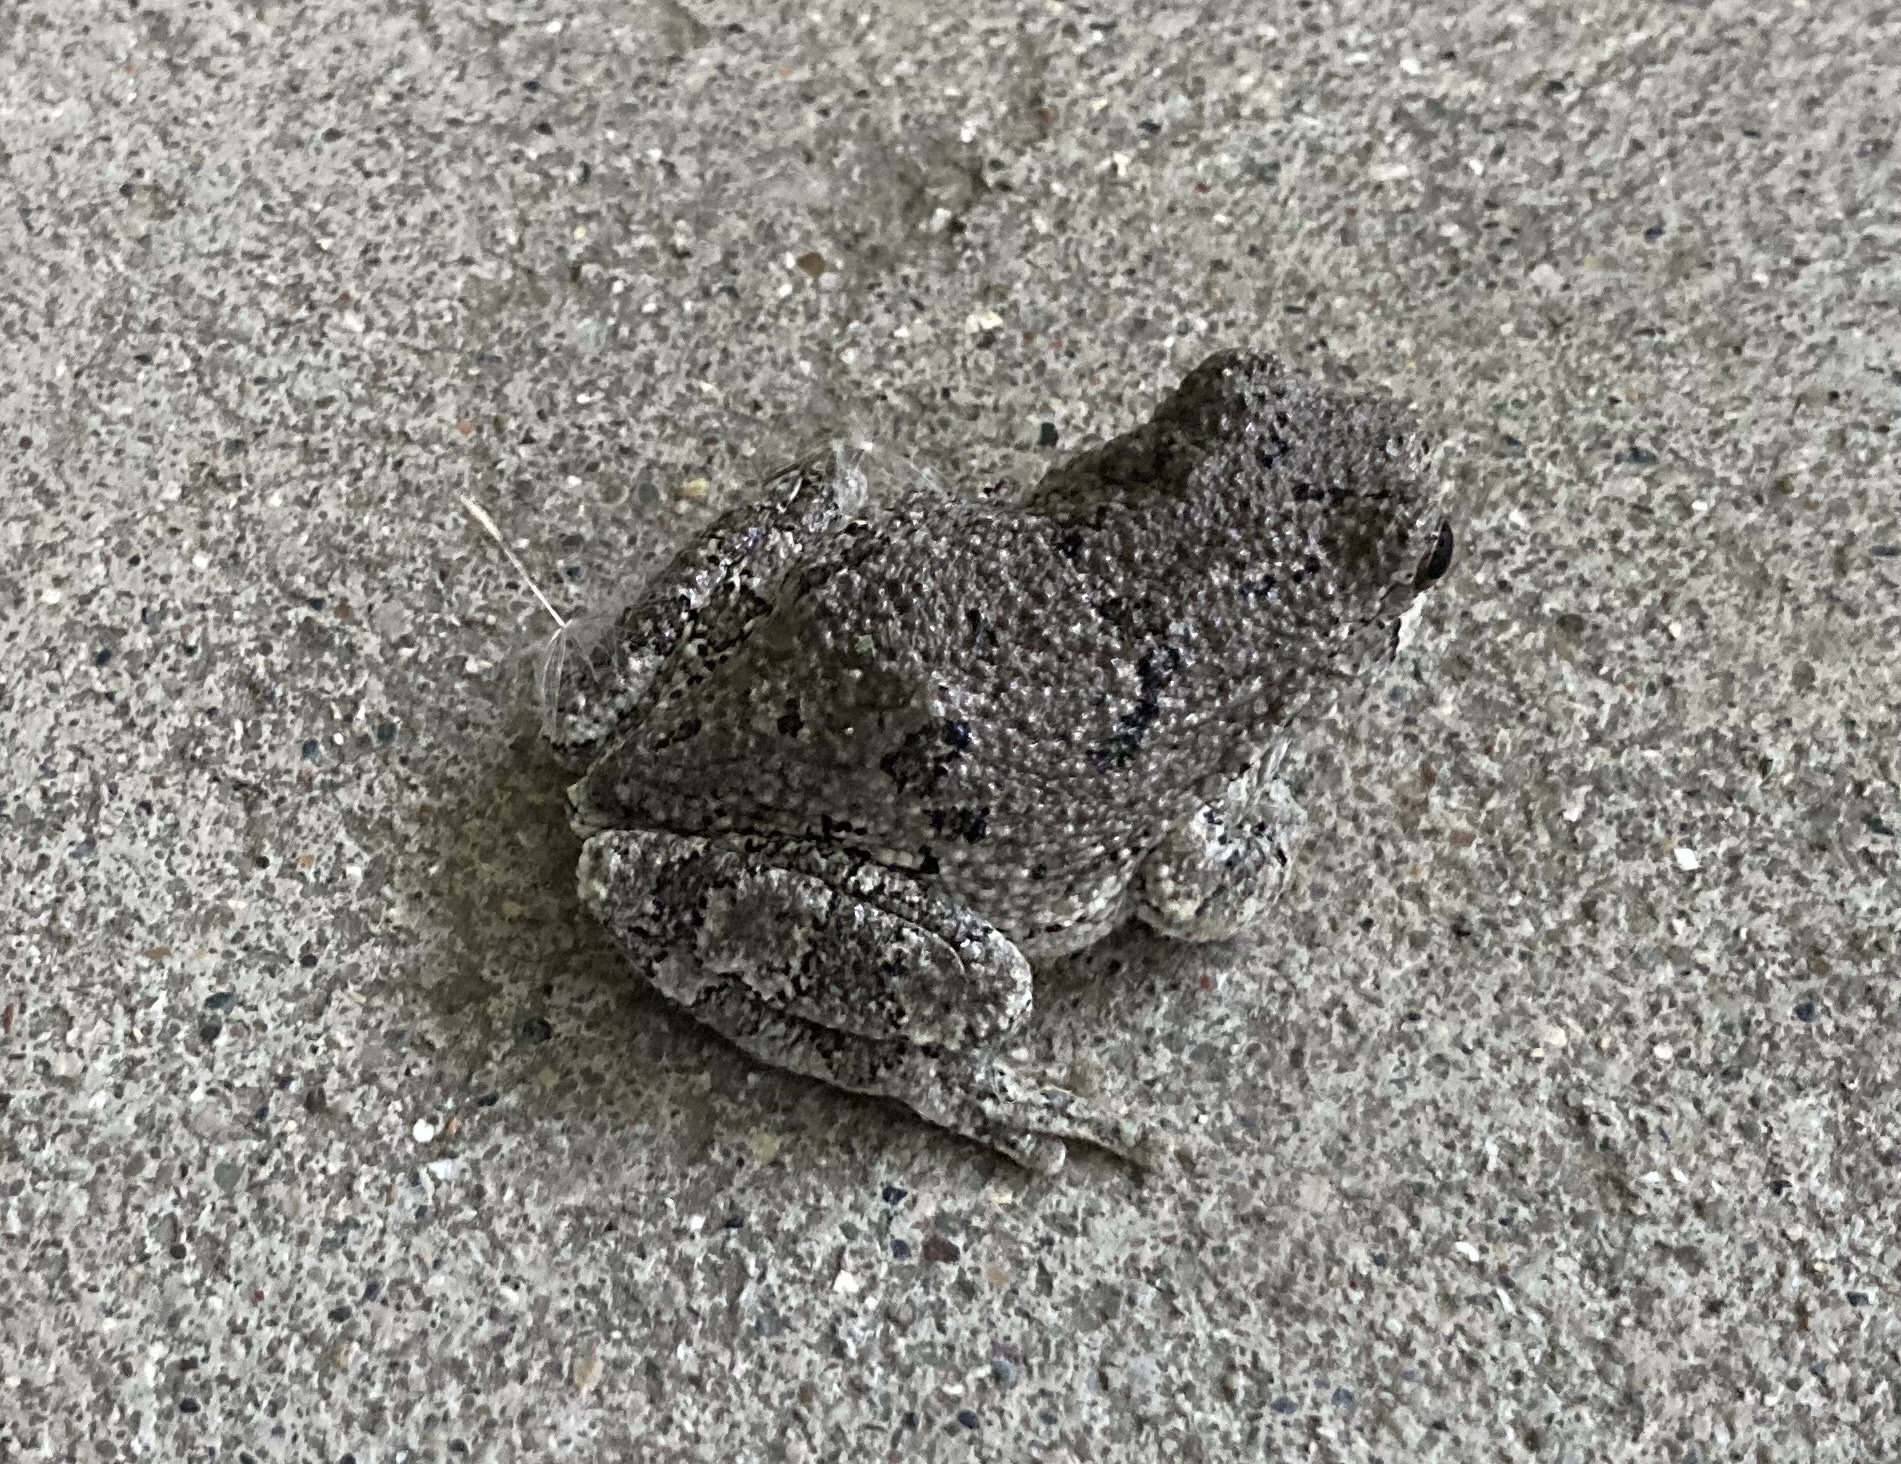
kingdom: Animalia
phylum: Chordata
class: Amphibia
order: Anura
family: Hylidae
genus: Hyla
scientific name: Hyla
